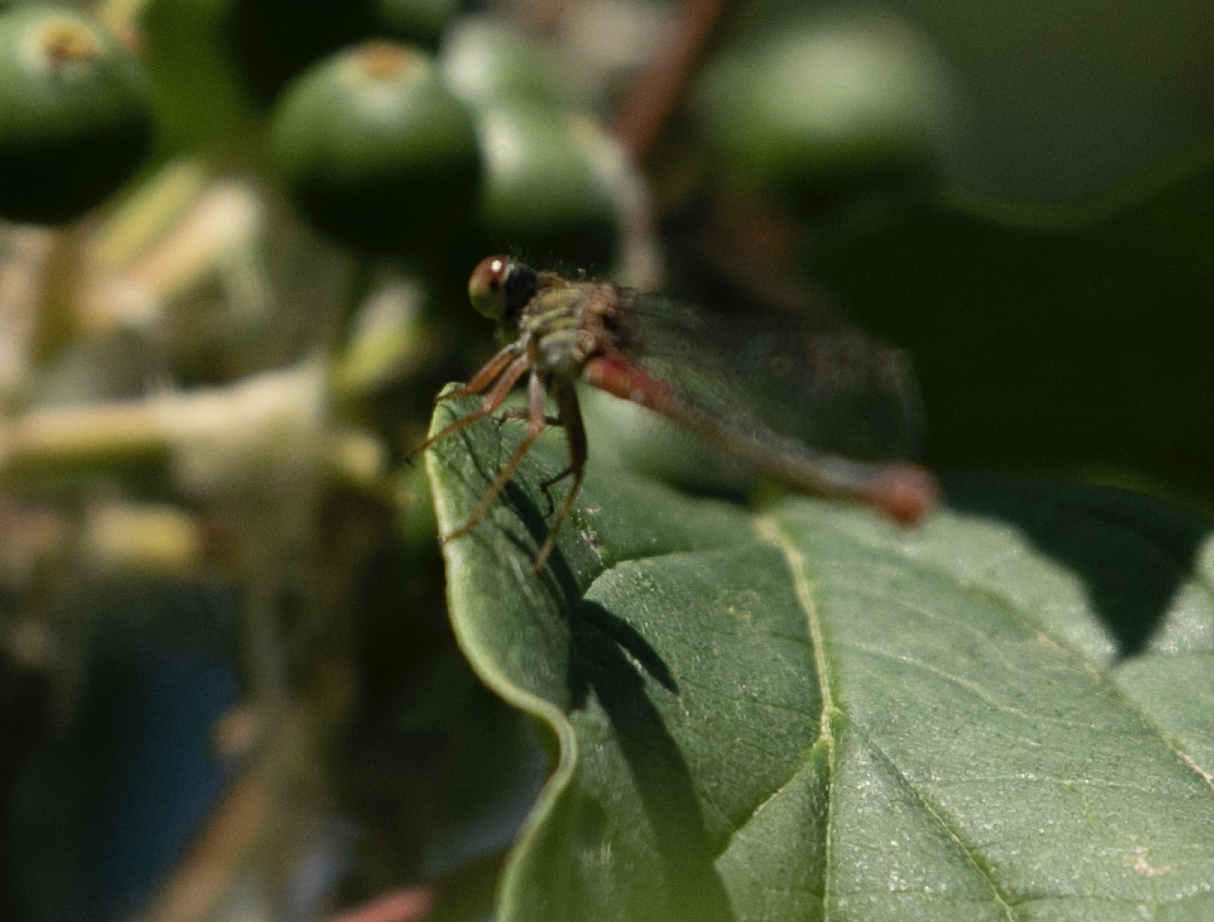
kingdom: Animalia
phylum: Arthropoda
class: Insecta
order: Odonata
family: Coenagrionidae
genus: Ceriagrion
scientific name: Ceriagrion tenellum
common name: Small red damselfly
